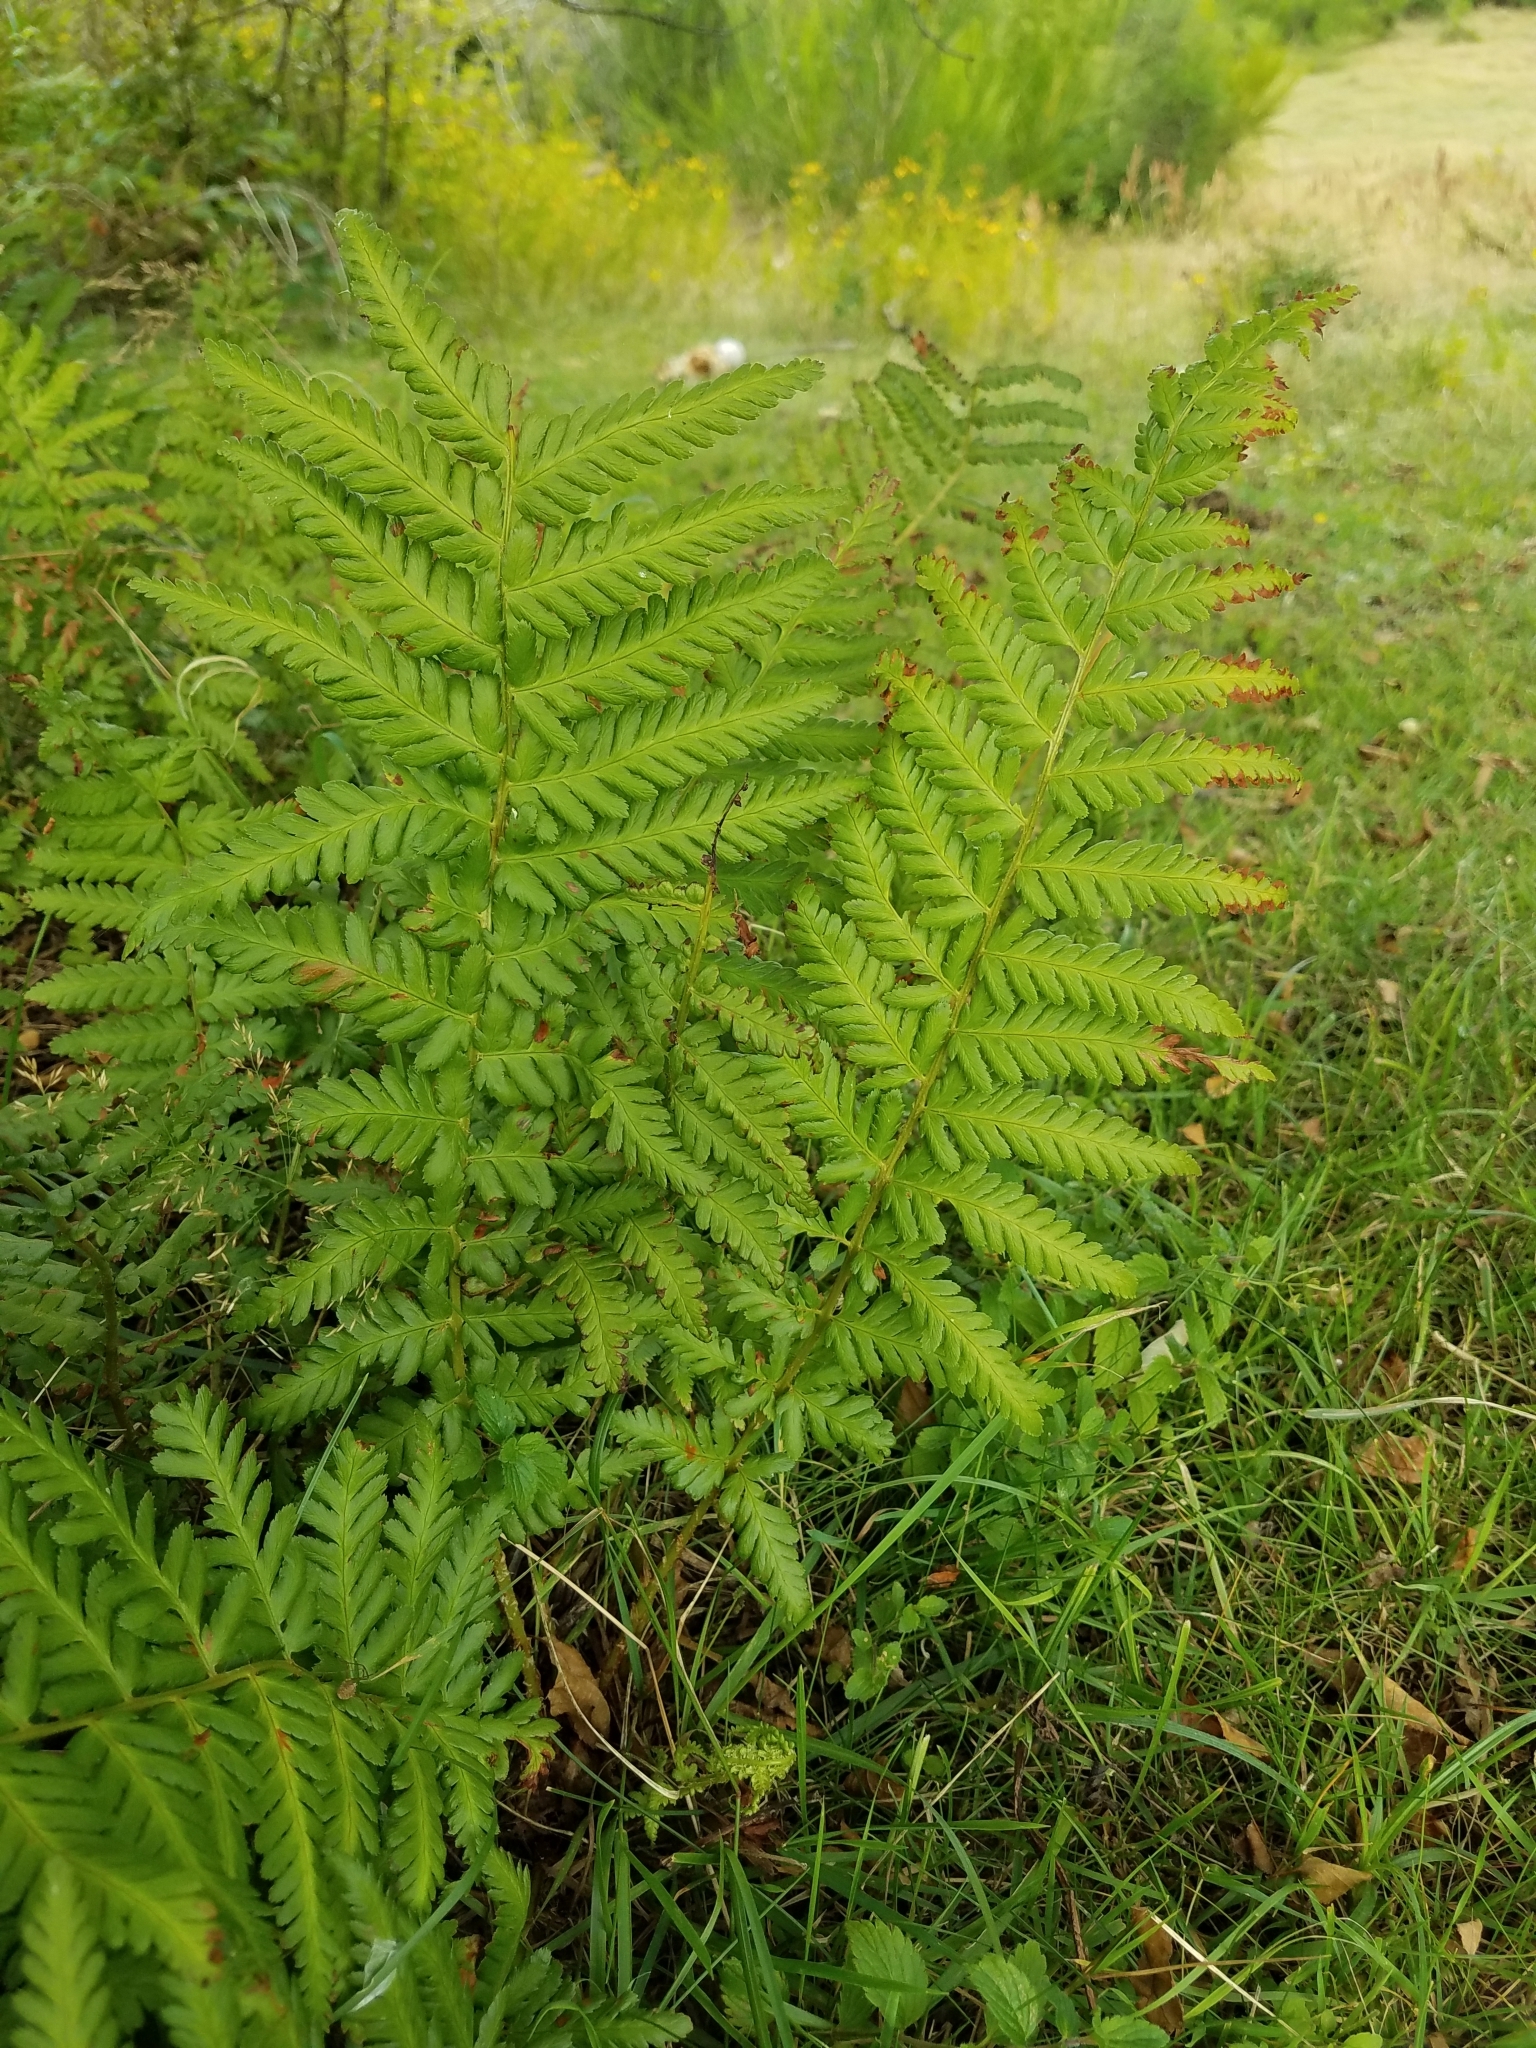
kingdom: Plantae
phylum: Tracheophyta
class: Polypodiopsida
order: Polypodiales
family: Dryopteridaceae
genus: Dryopteris
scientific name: Dryopteris filix-mas
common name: Male fern
